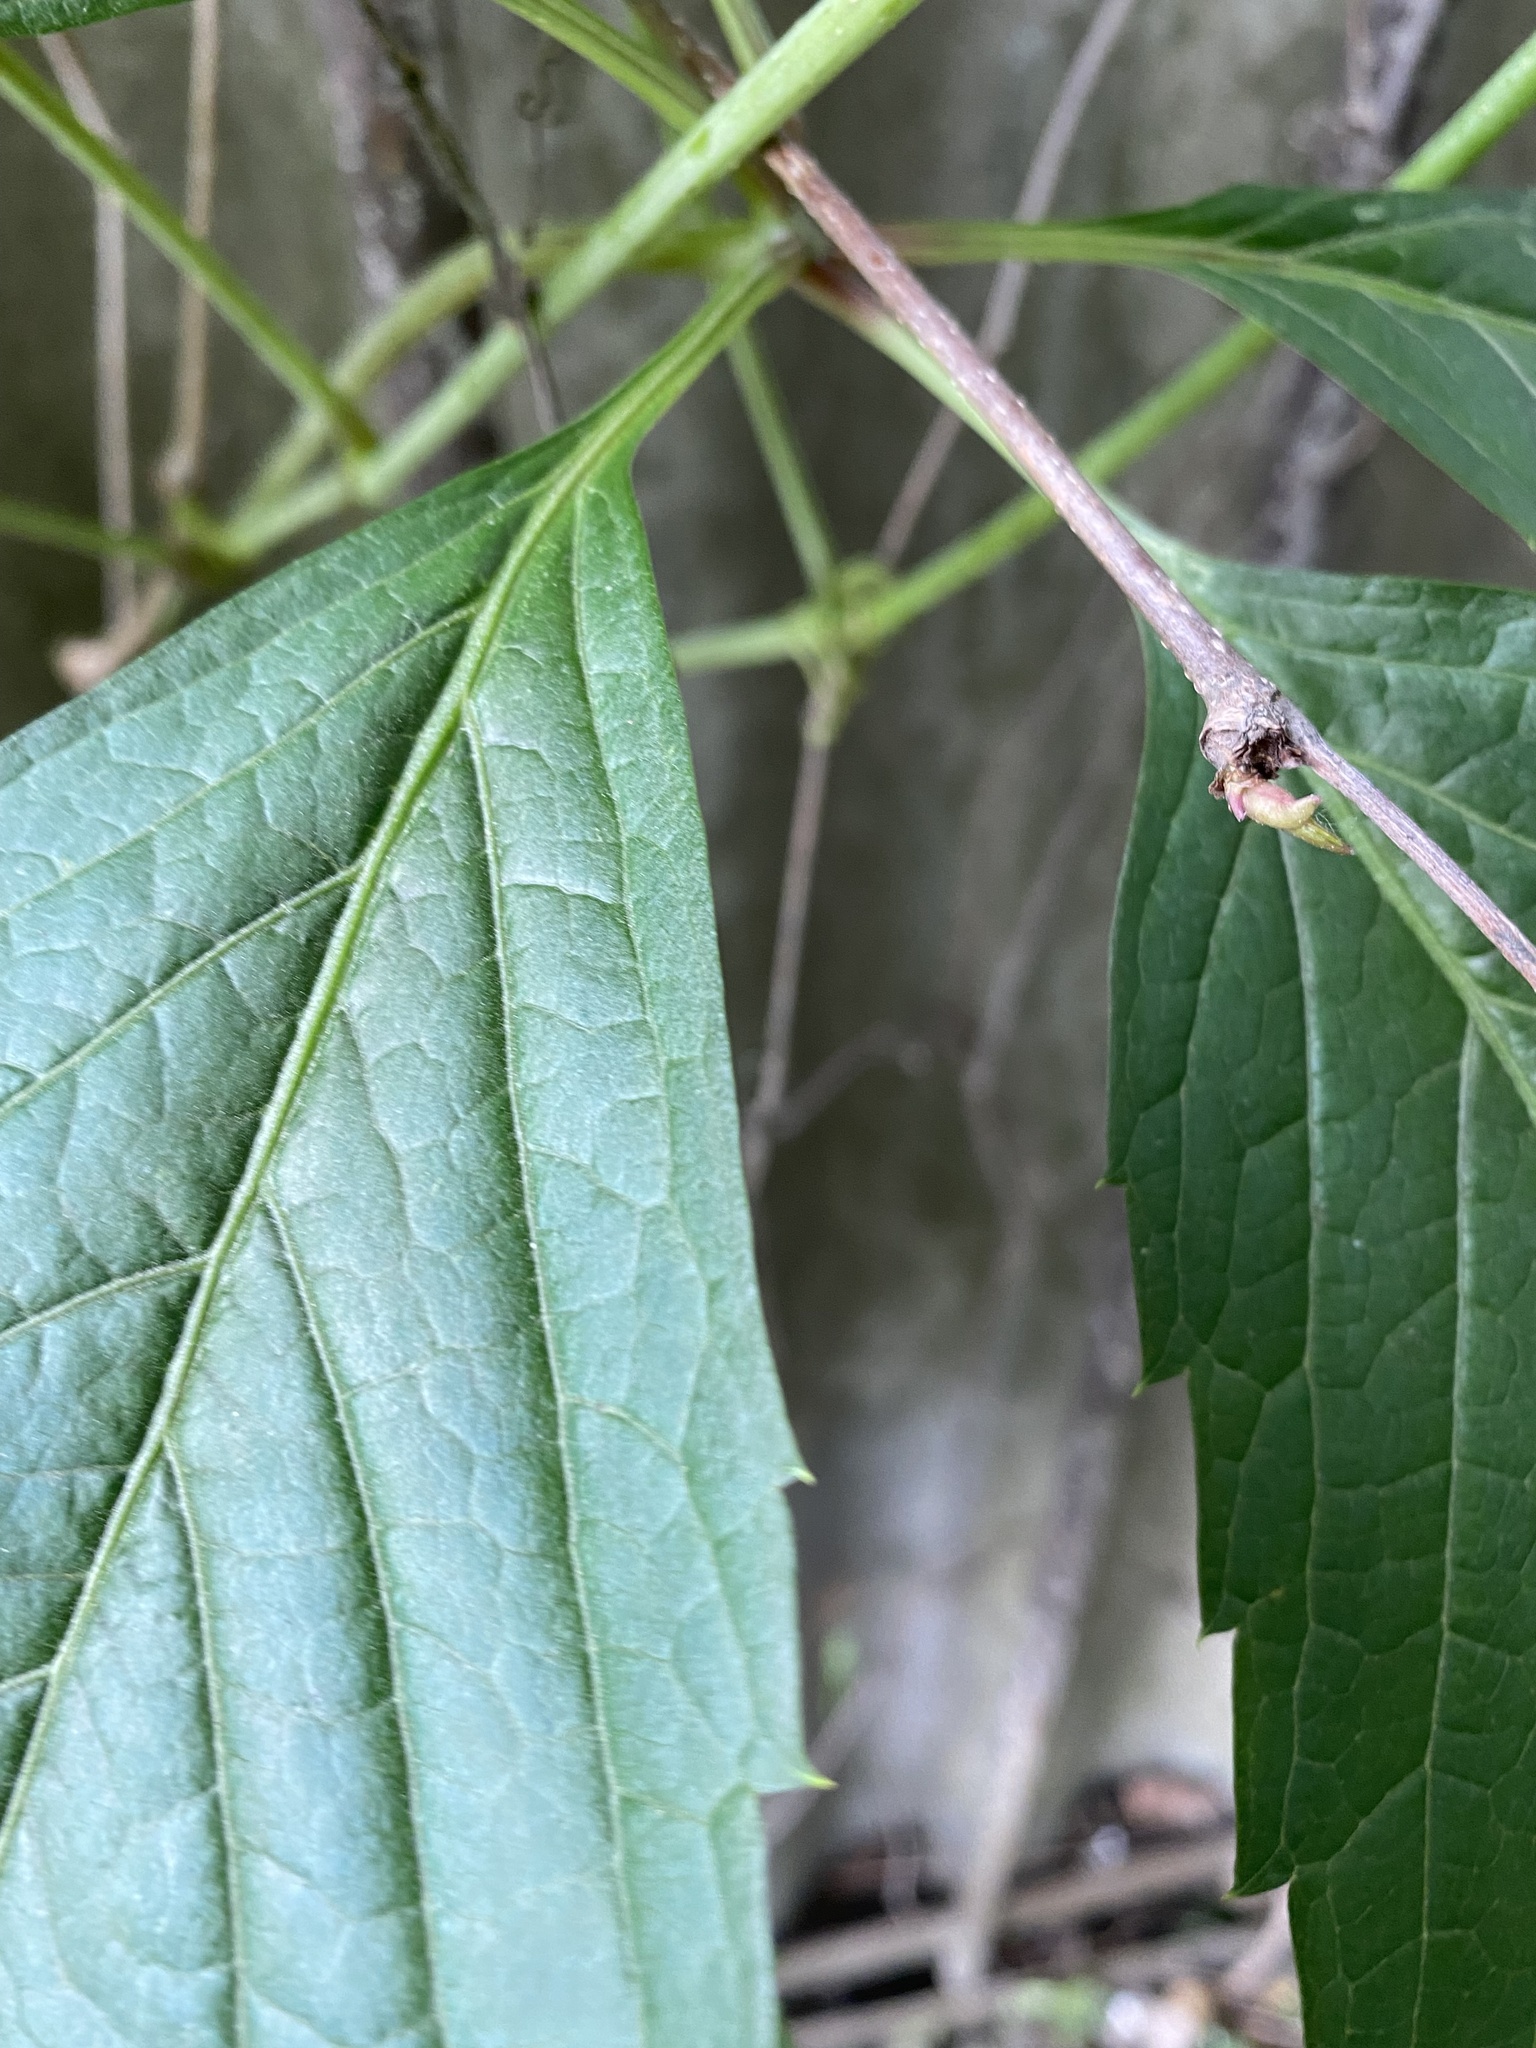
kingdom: Plantae
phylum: Tracheophyta
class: Magnoliopsida
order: Vitales
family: Vitaceae
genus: Parthenocissus
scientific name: Parthenocissus inserta
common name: False virginia-creeper
